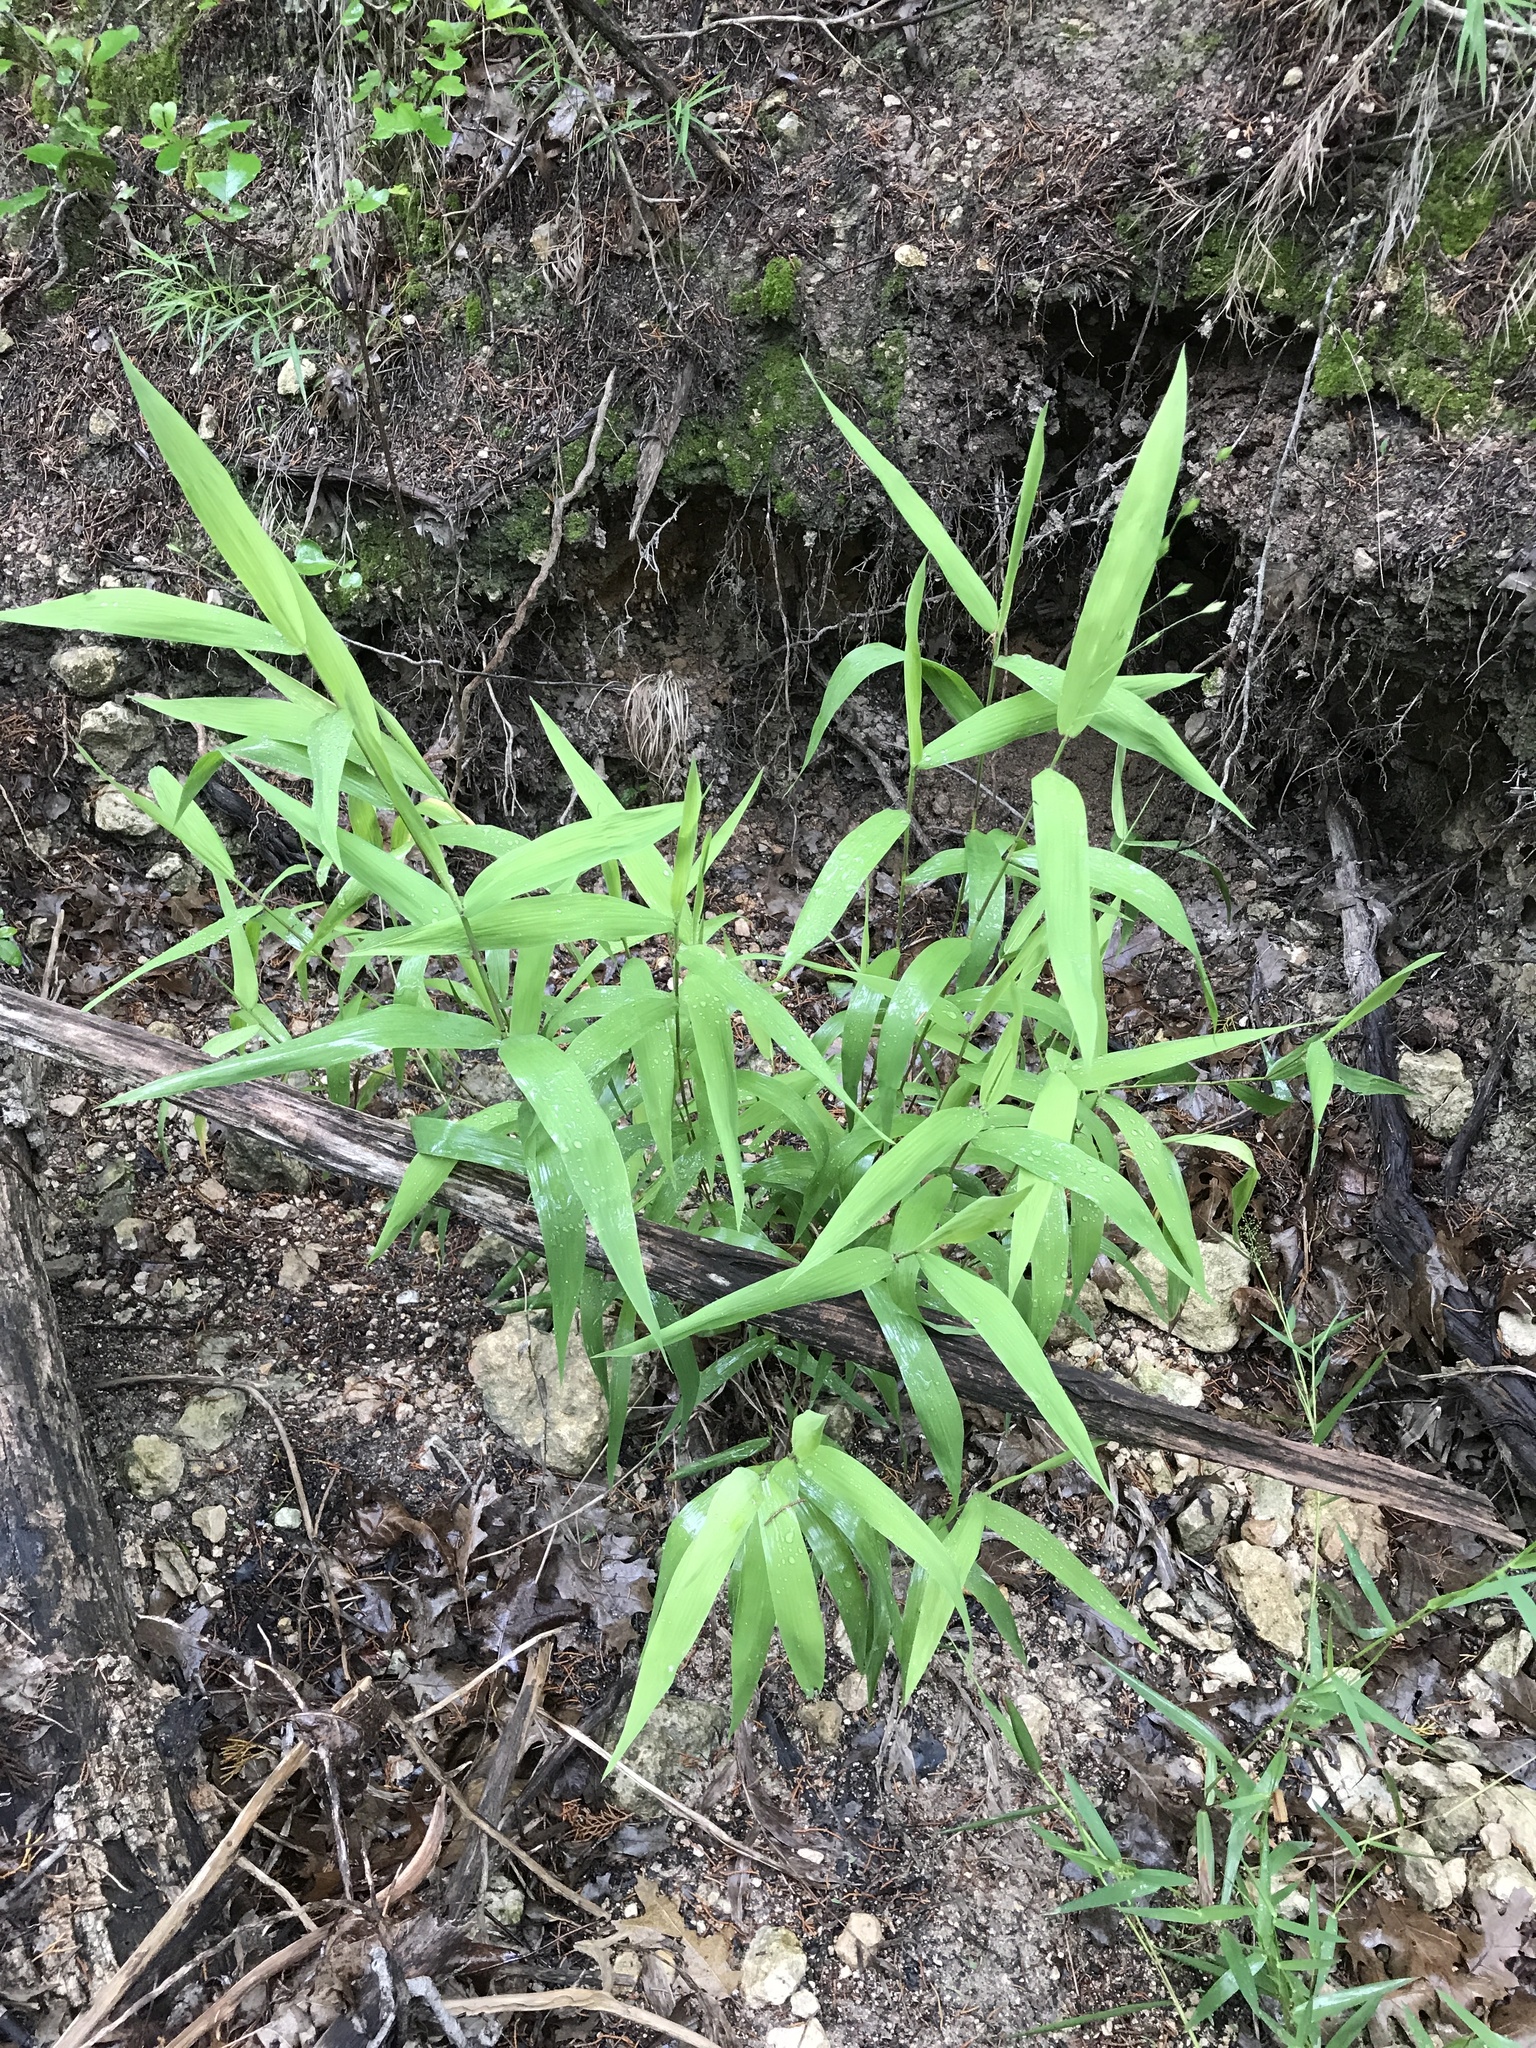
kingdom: Plantae
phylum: Tracheophyta
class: Liliopsida
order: Poales
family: Poaceae
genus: Chasmanthium
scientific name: Chasmanthium latifolium
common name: Broad-leaved chasmanthium
